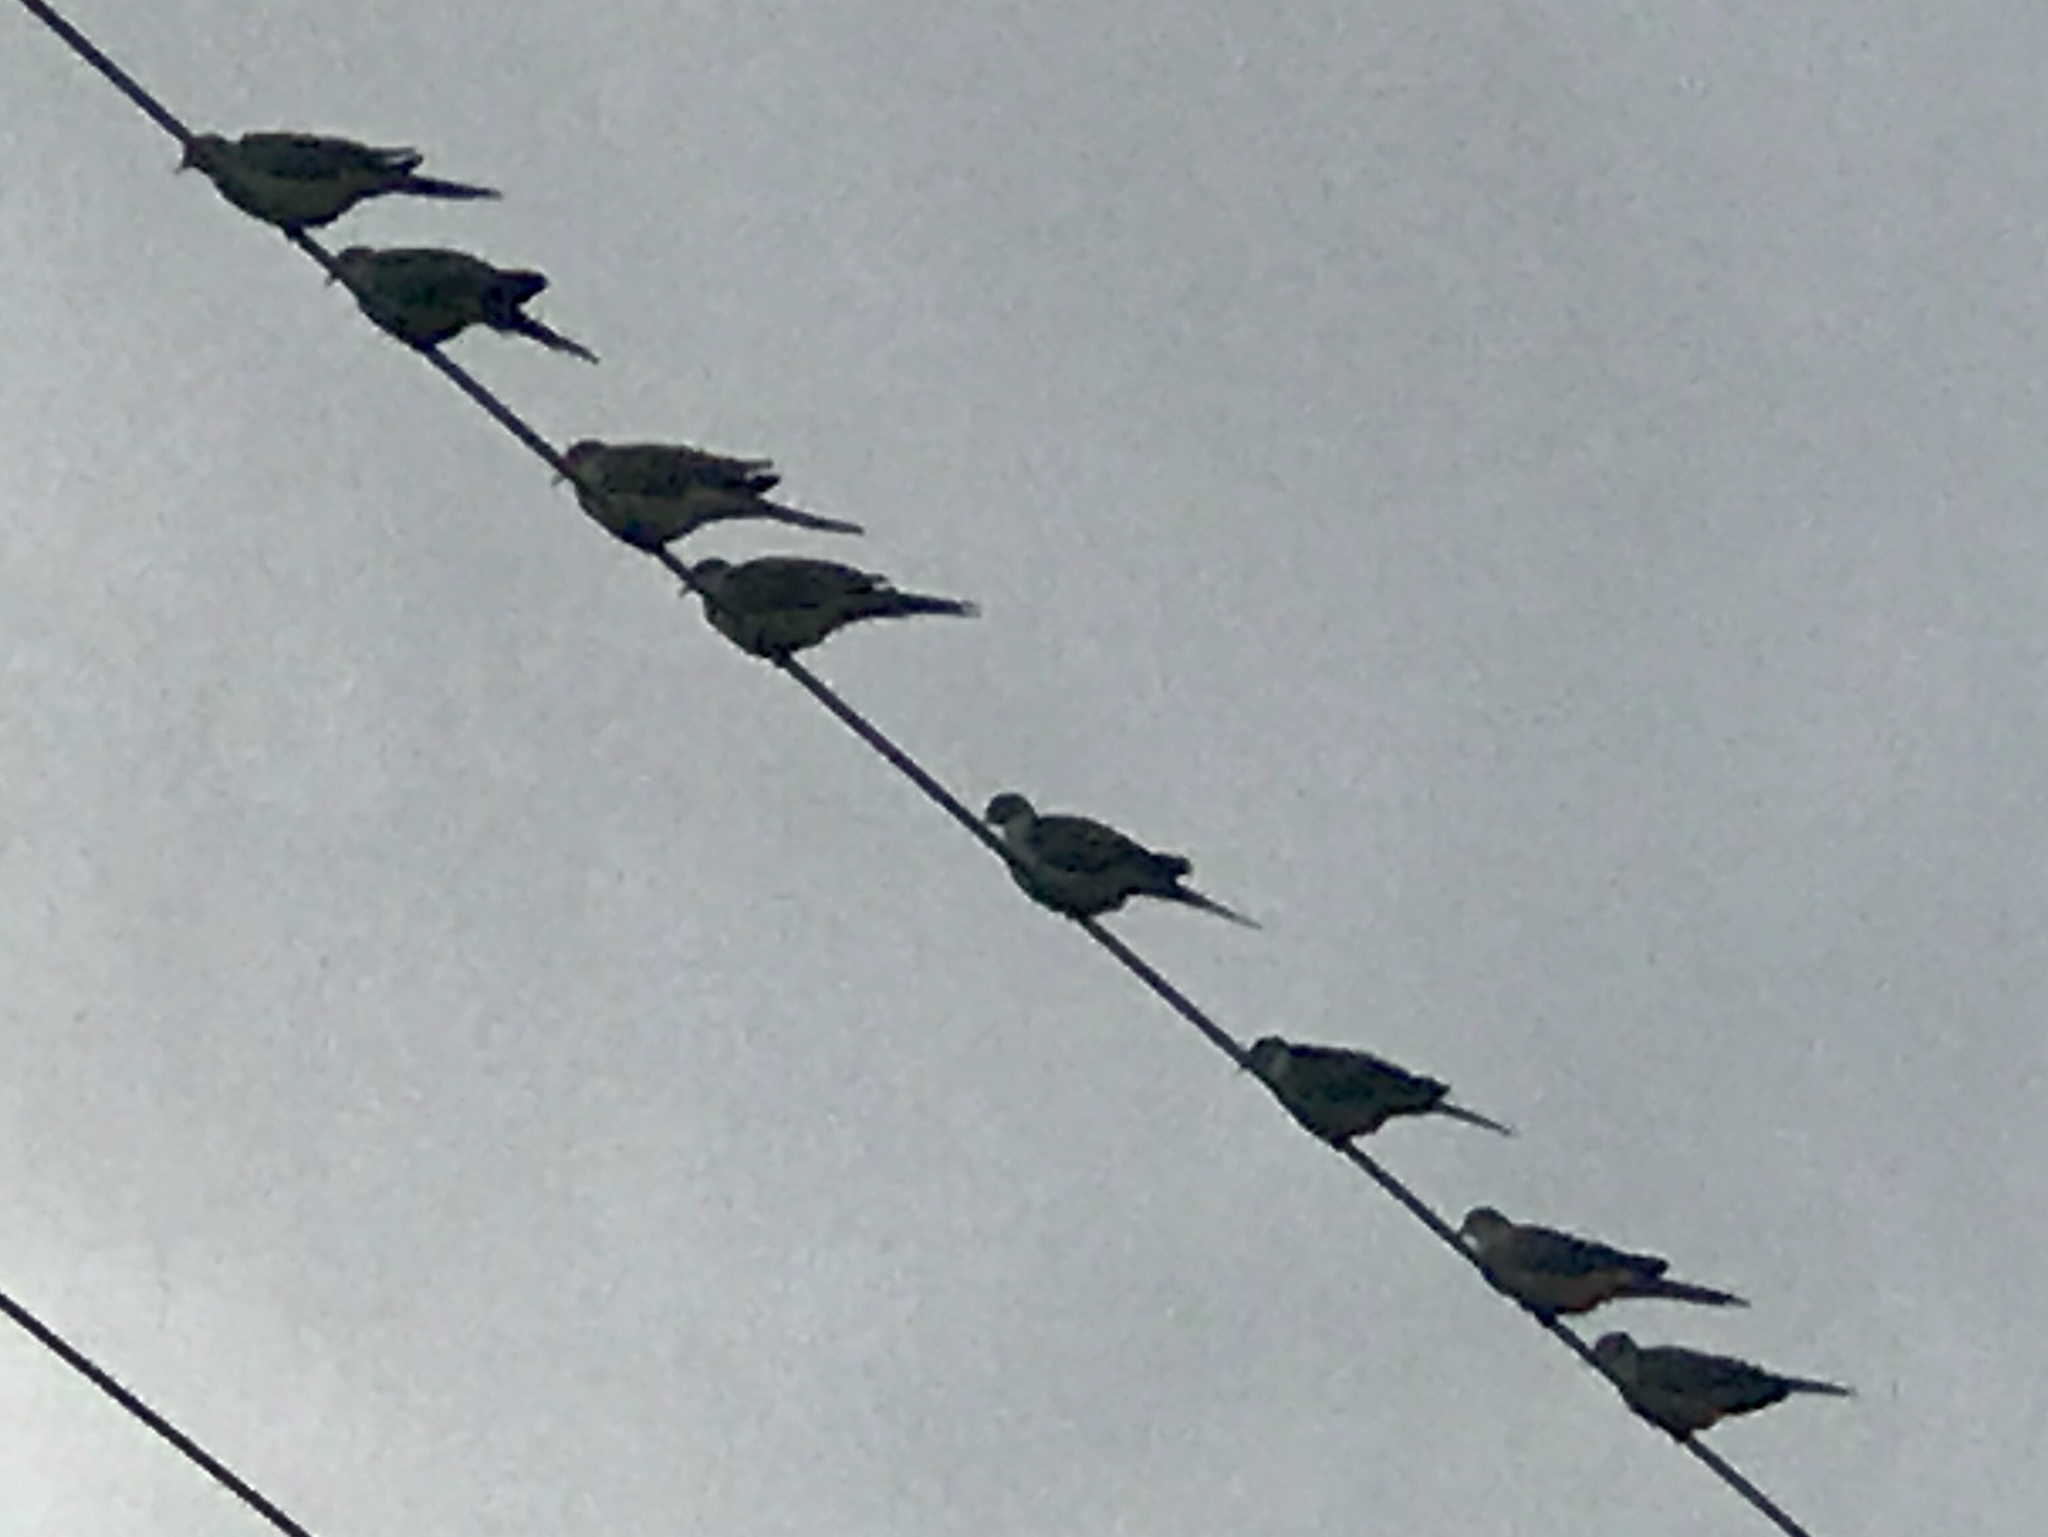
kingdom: Animalia
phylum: Chordata
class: Aves
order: Columbiformes
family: Columbidae
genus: Zenaida
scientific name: Zenaida macroura
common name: Mourning dove
